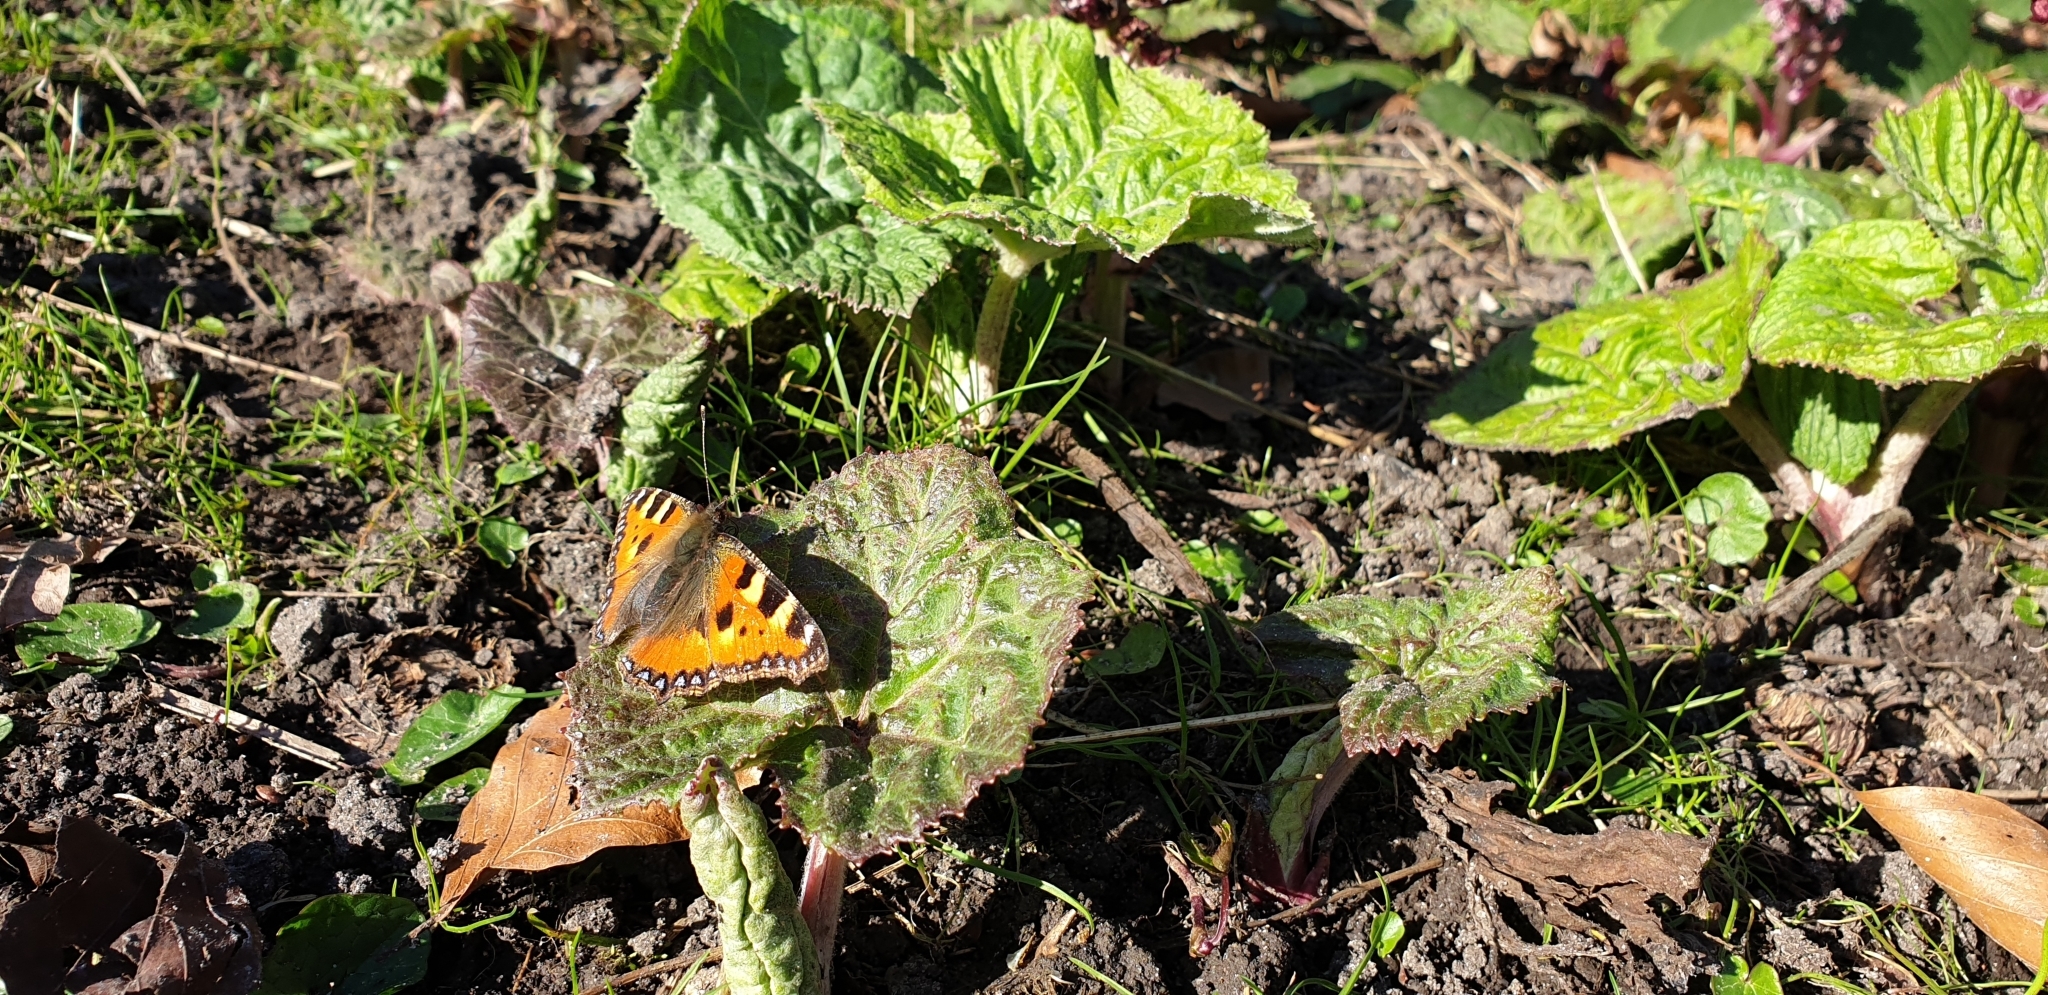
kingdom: Animalia
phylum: Arthropoda
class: Insecta
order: Lepidoptera
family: Nymphalidae
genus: Aglais
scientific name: Aglais urticae
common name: Small tortoiseshell
